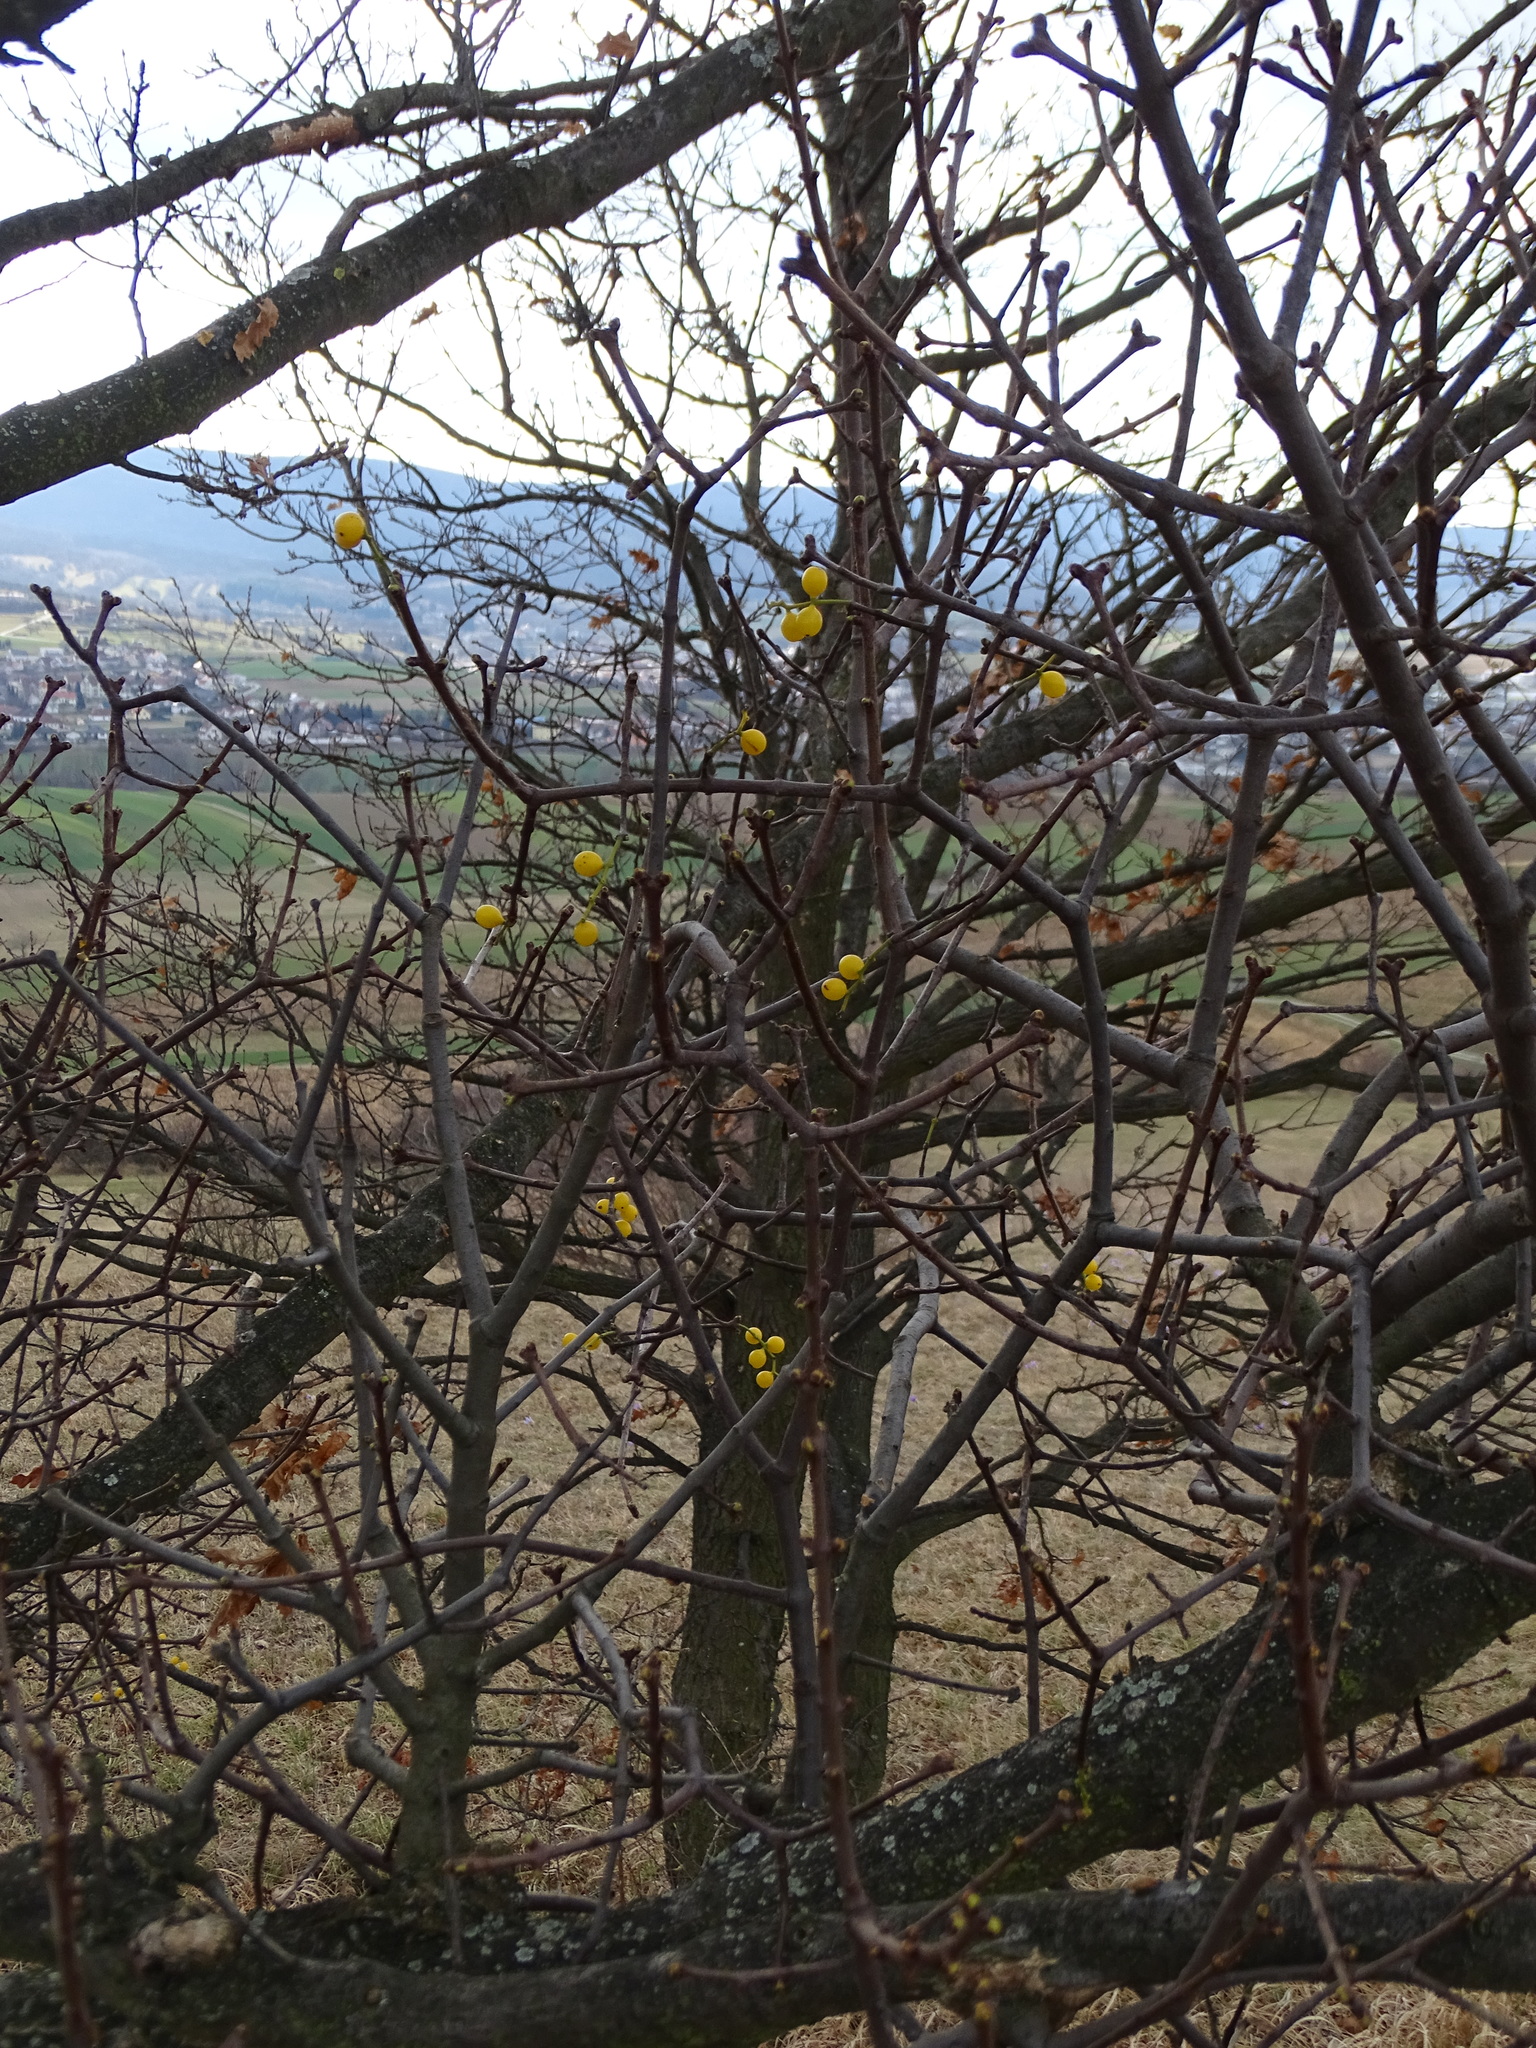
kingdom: Plantae
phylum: Tracheophyta
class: Magnoliopsida
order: Santalales
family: Loranthaceae
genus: Loranthus
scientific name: Loranthus europaeus
